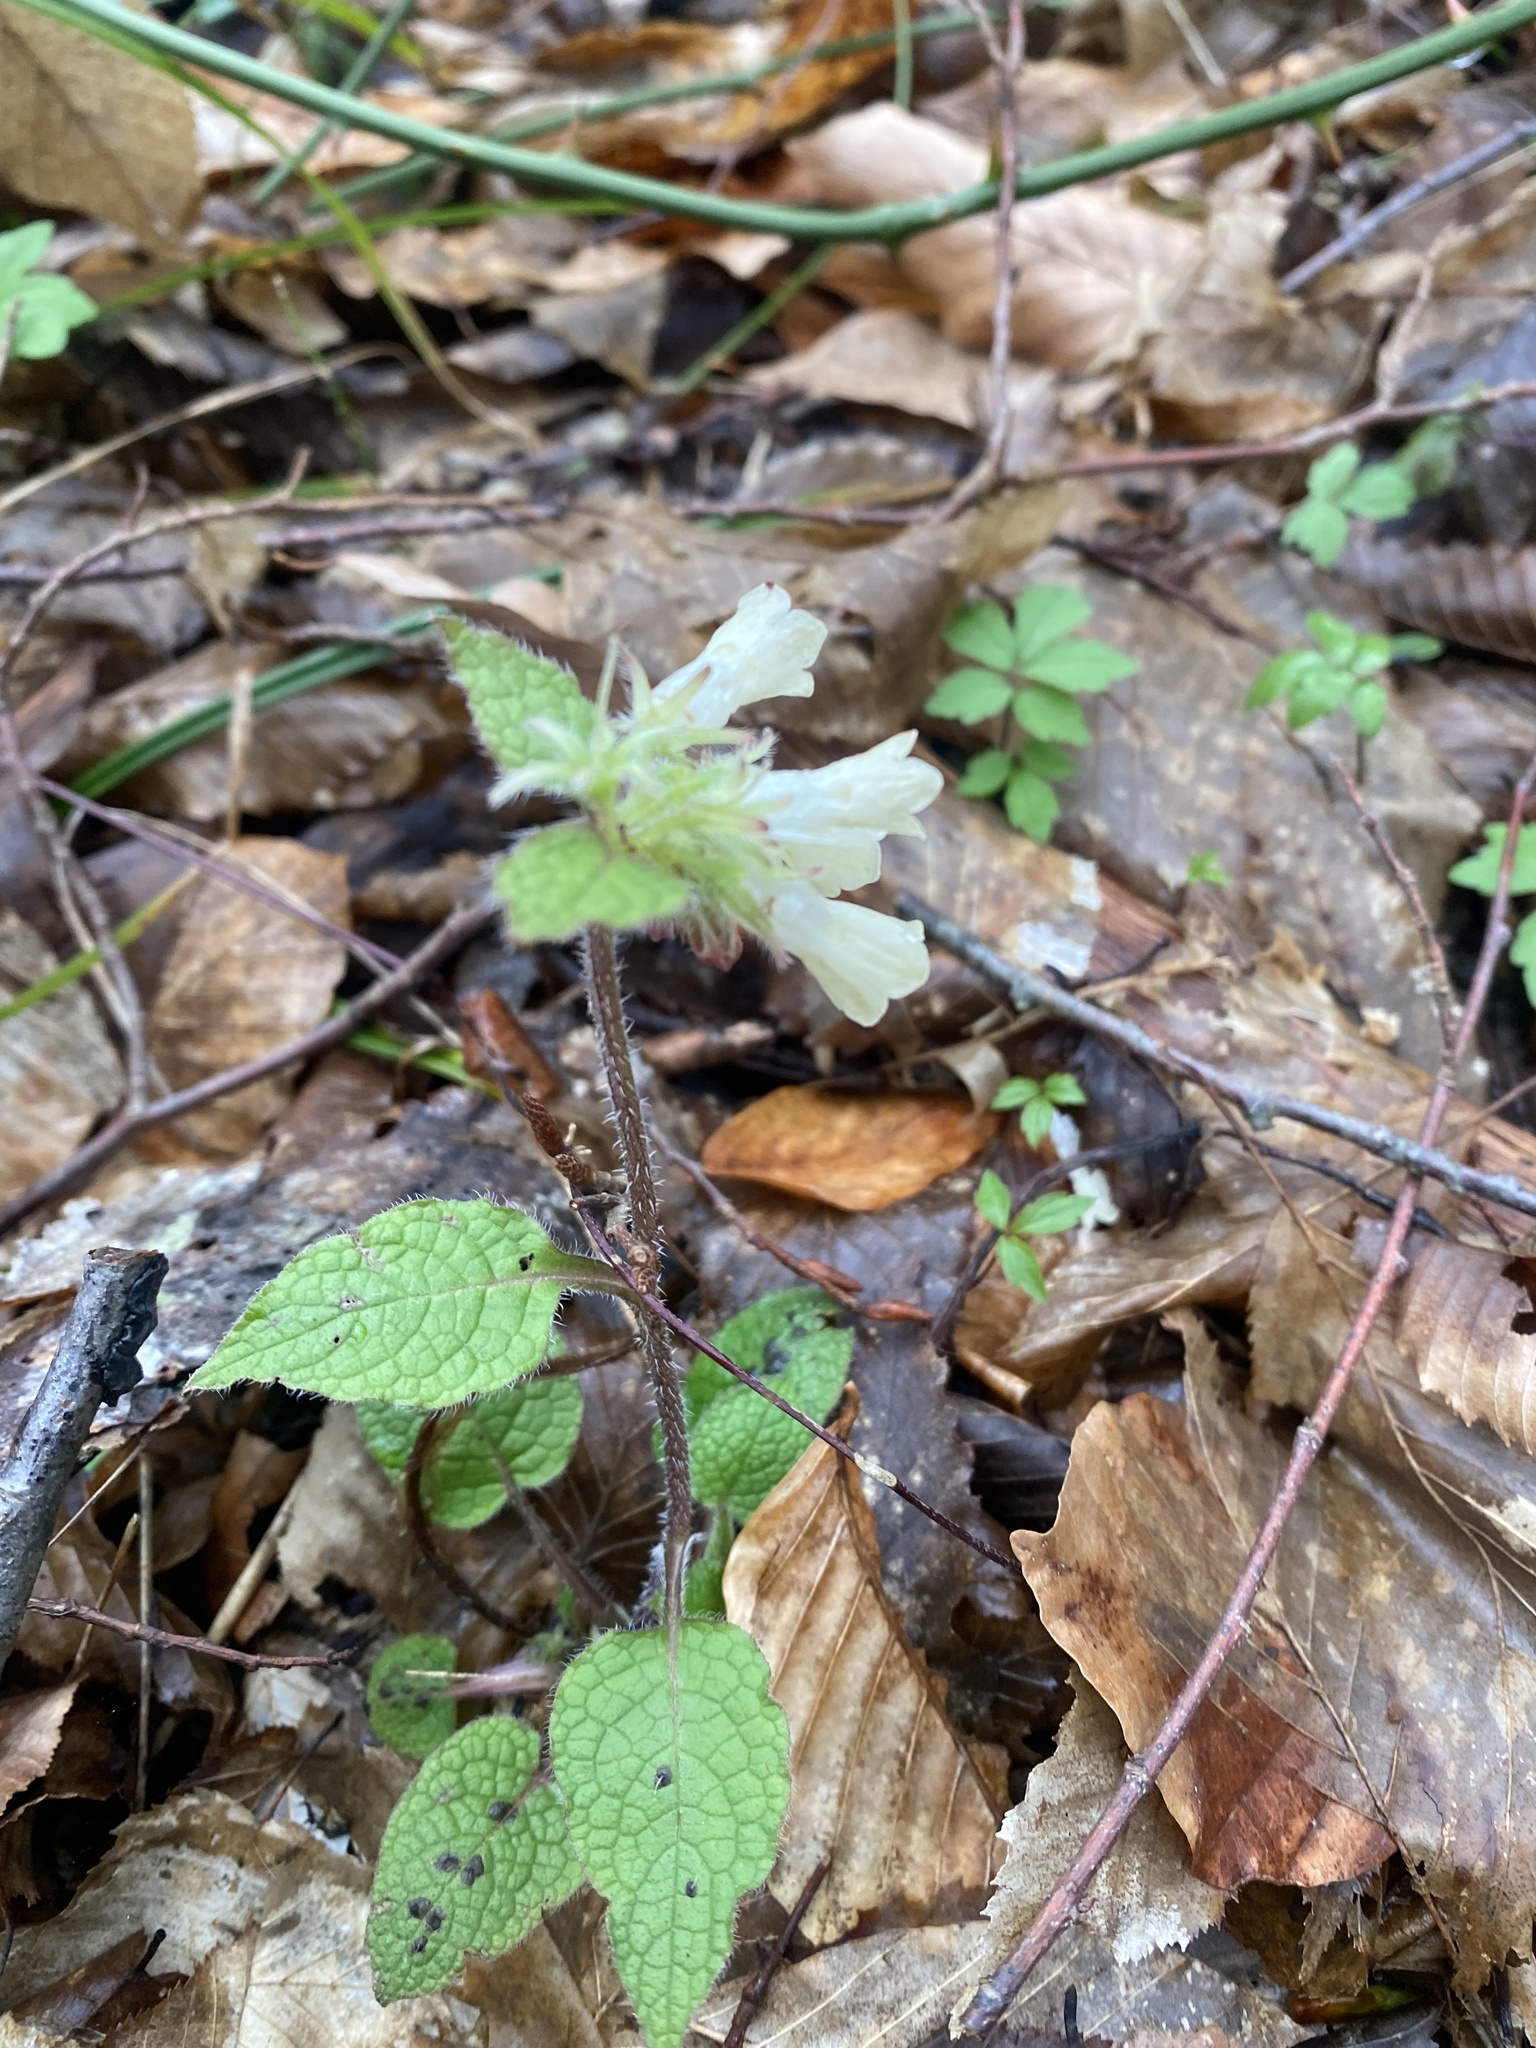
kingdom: Plantae
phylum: Tracheophyta
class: Magnoliopsida
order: Boraginales
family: Boraginaceae
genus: Symphytum
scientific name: Symphytum grandiflorum
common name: Creeping comfrey
